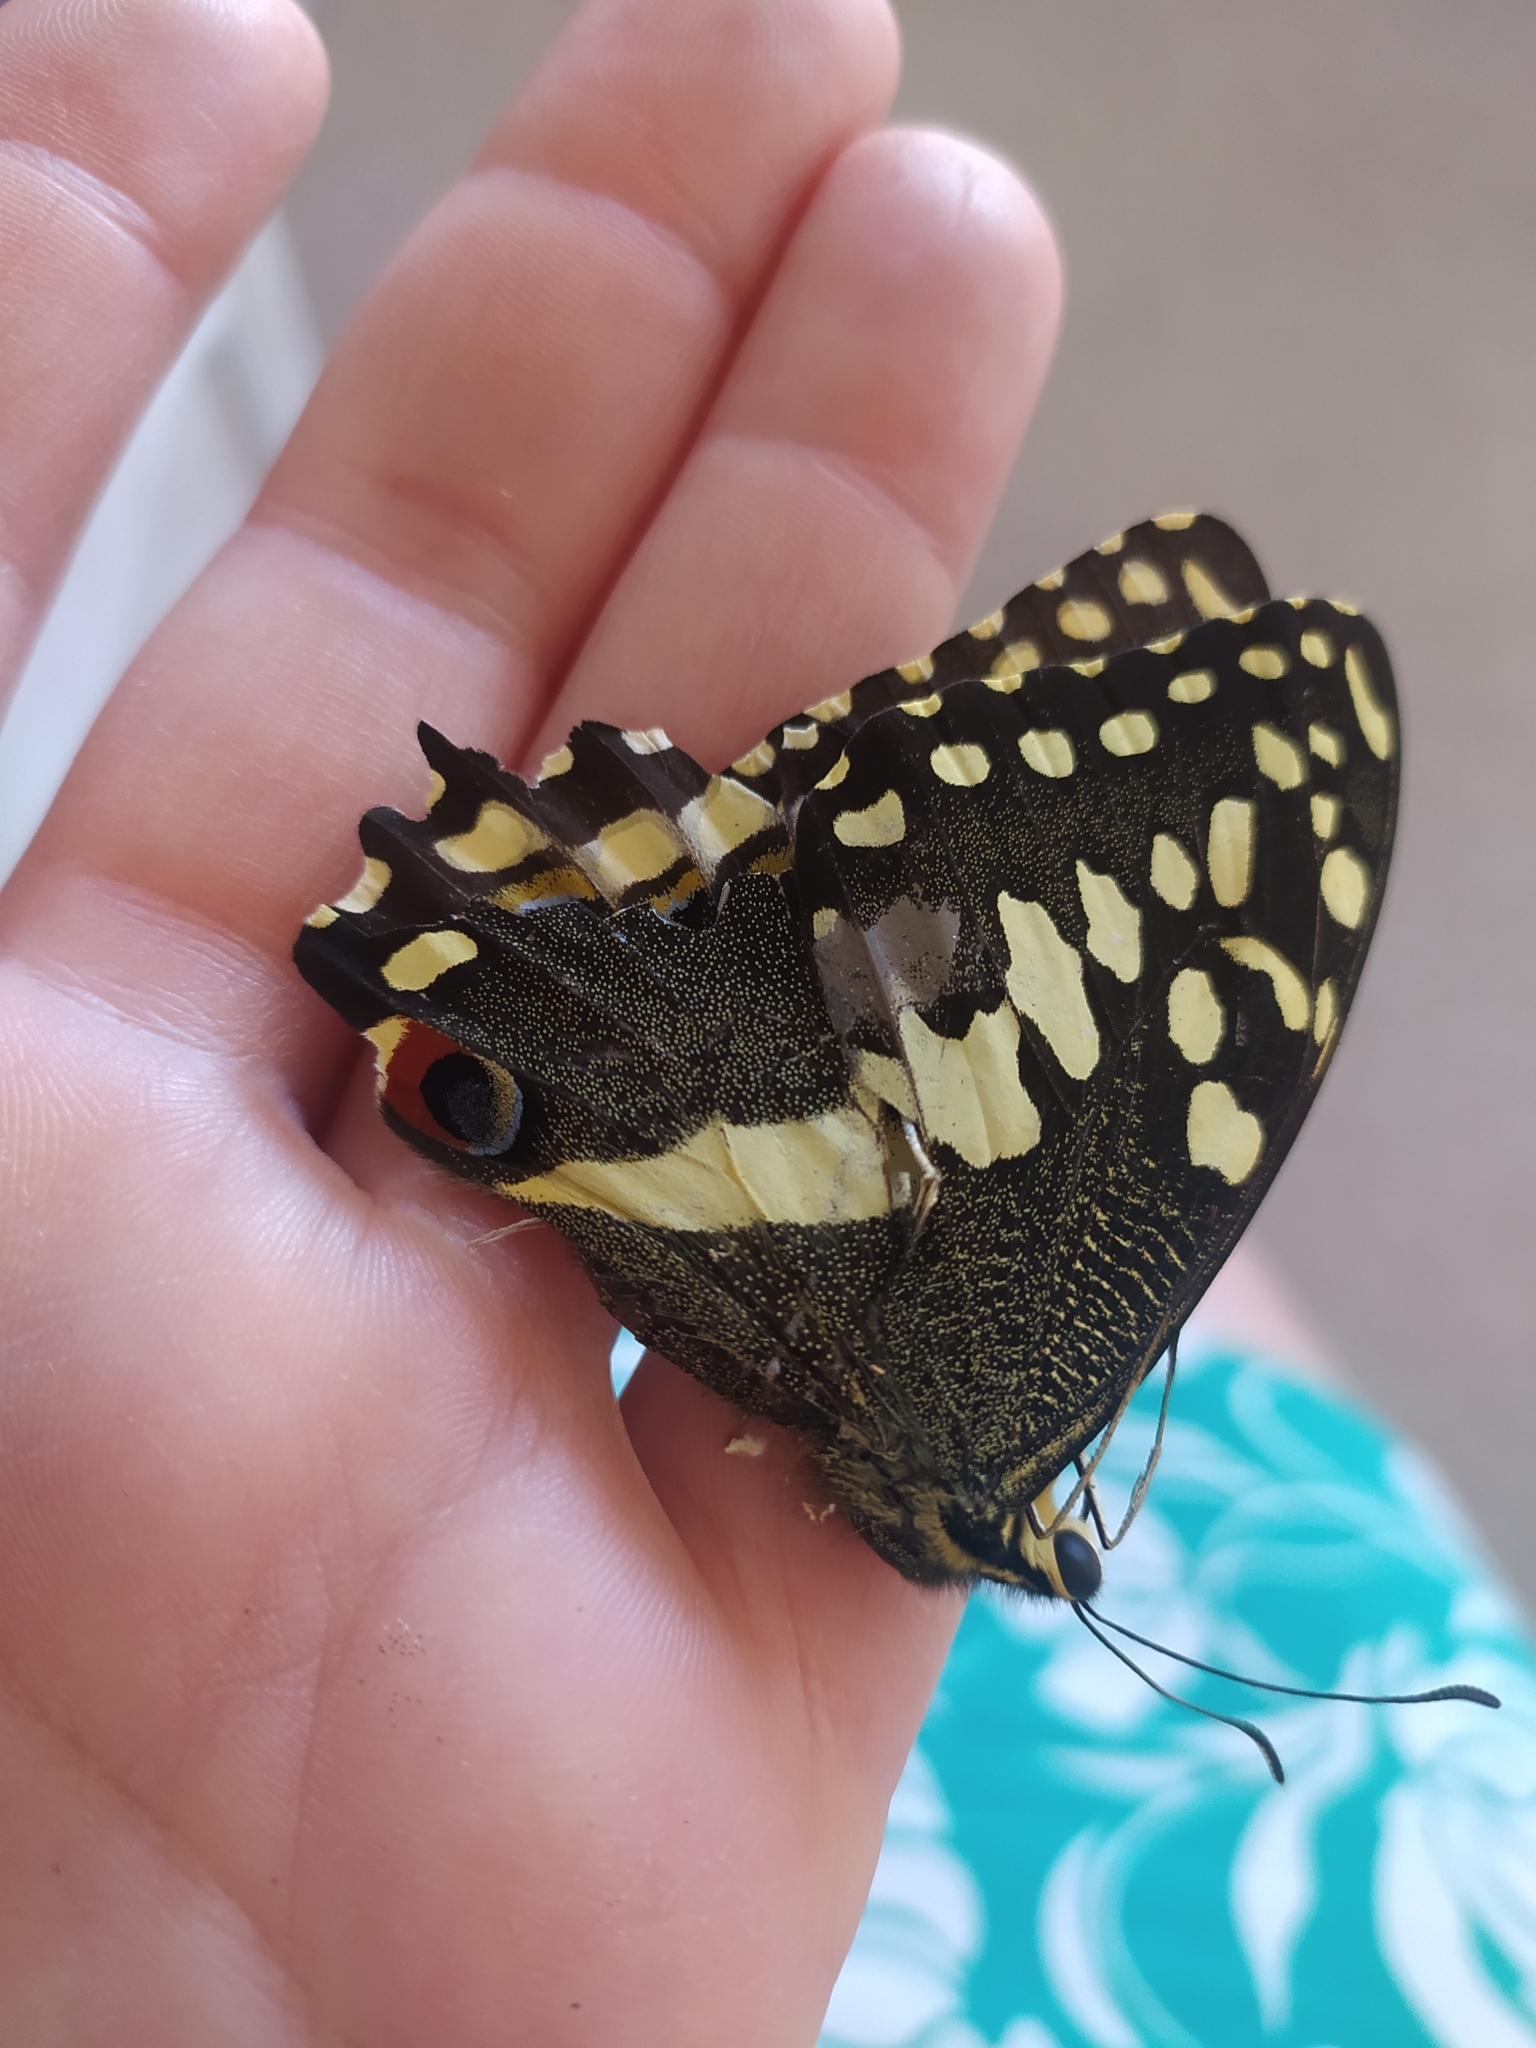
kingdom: Animalia
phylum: Arthropoda
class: Insecta
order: Lepidoptera
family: Papilionidae
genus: Papilio
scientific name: Papilio demodocus
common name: Christmas butterfly
